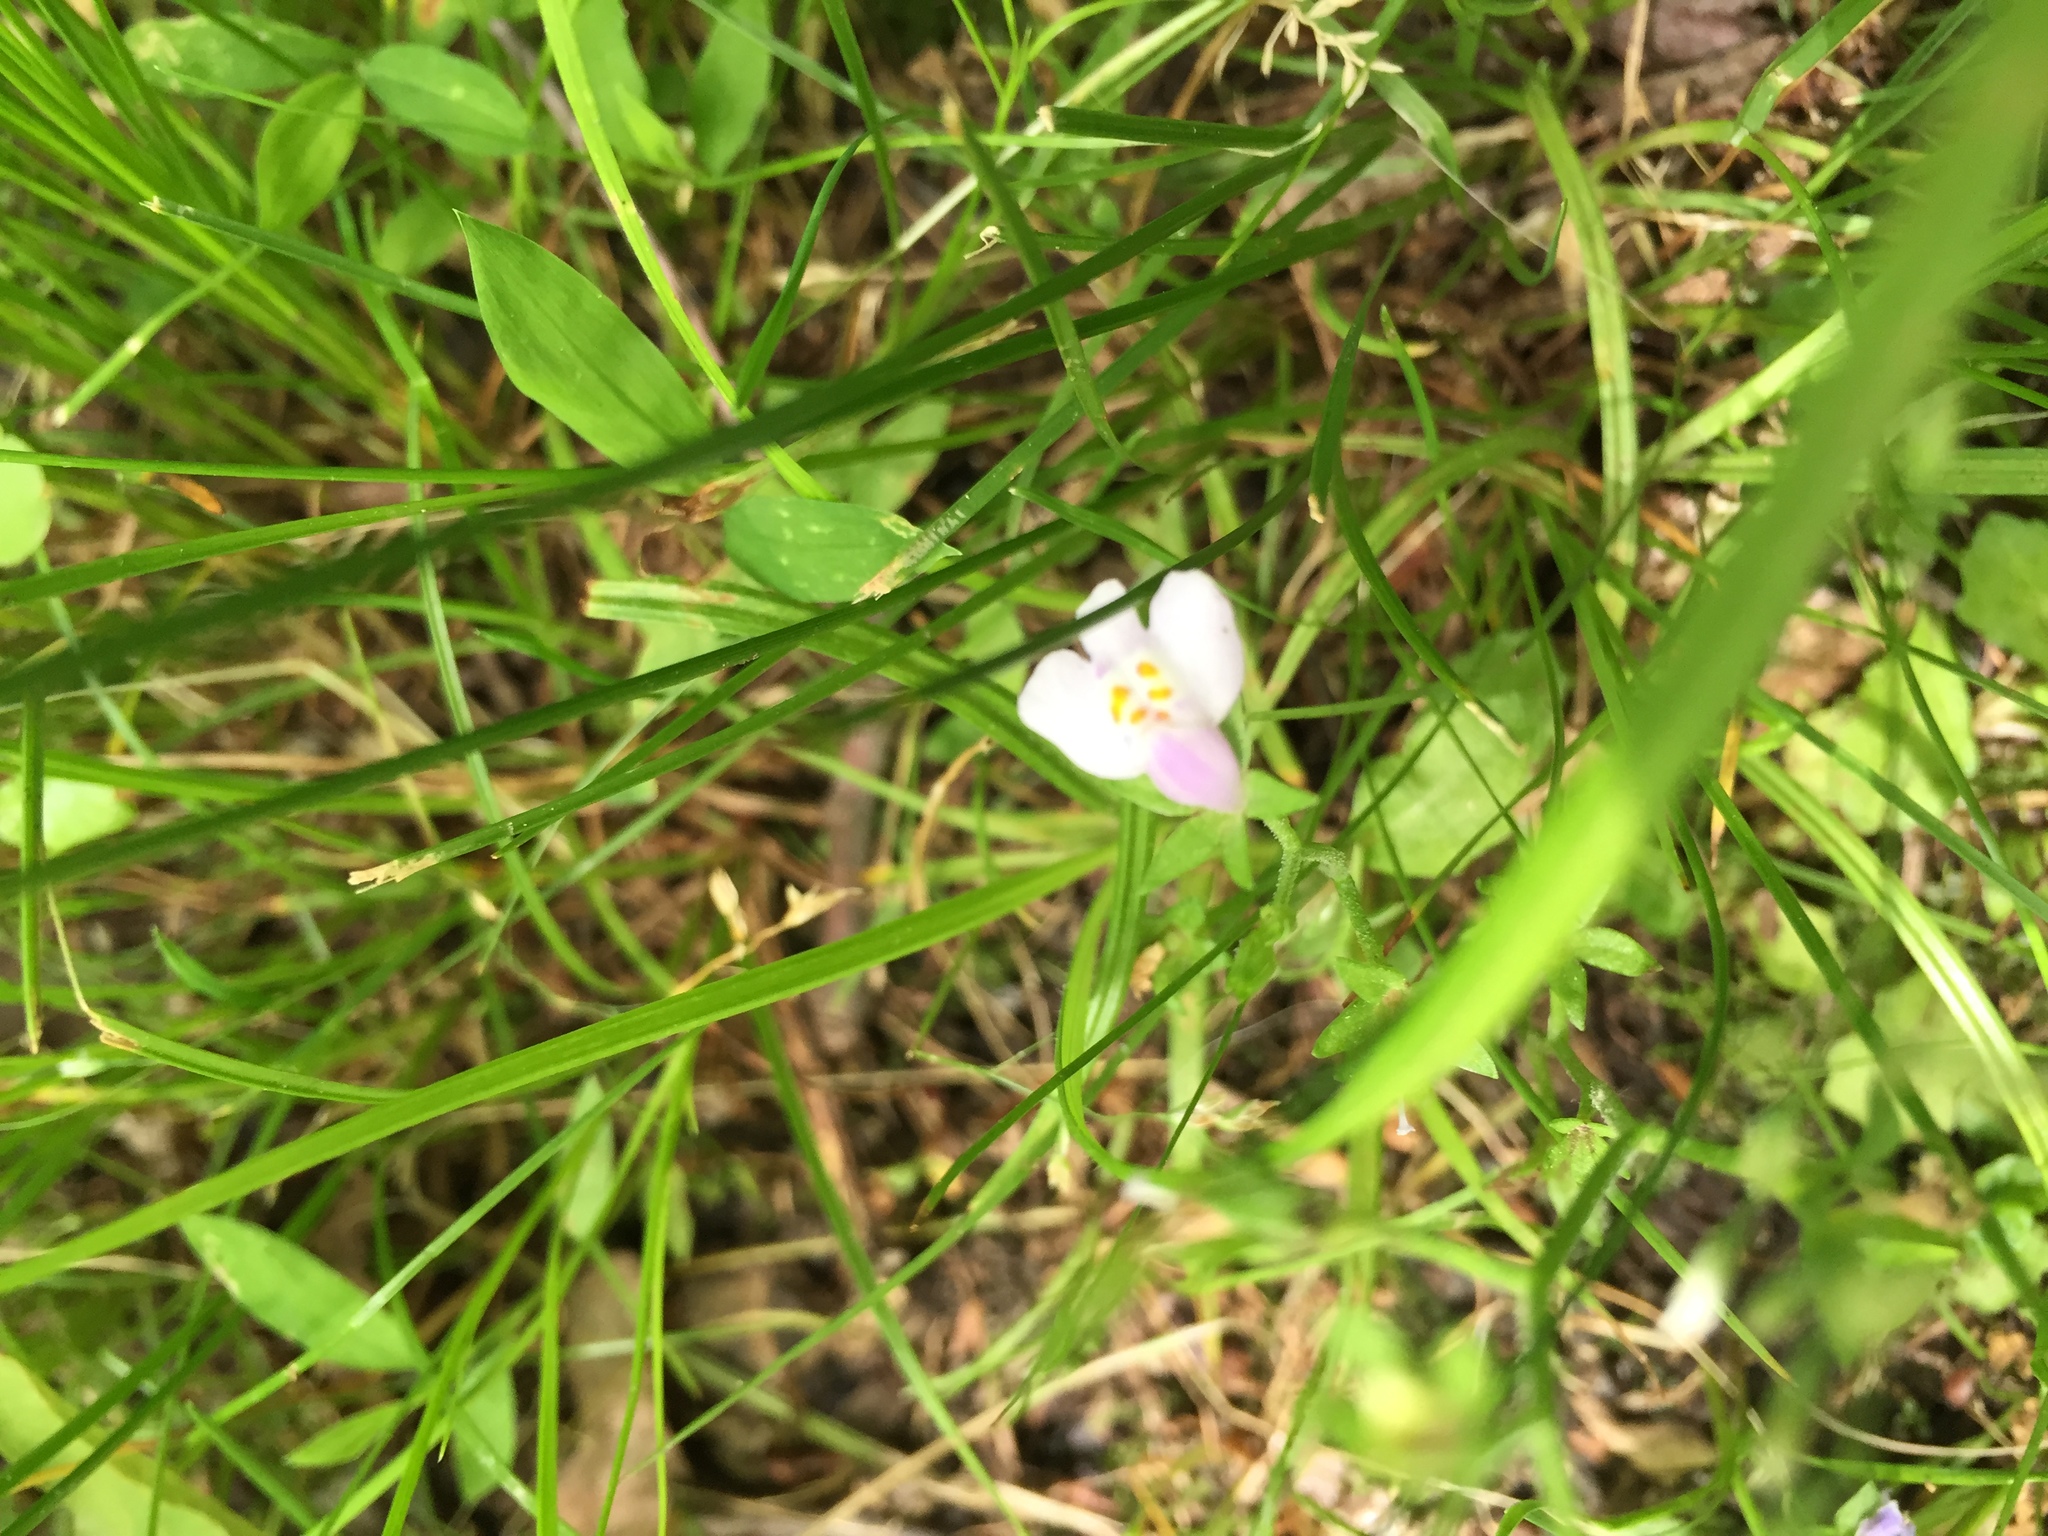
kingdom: Plantae
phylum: Tracheophyta
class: Magnoliopsida
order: Lamiales
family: Mazaceae
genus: Mazus
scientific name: Mazus pumilus
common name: Japanese mazus
